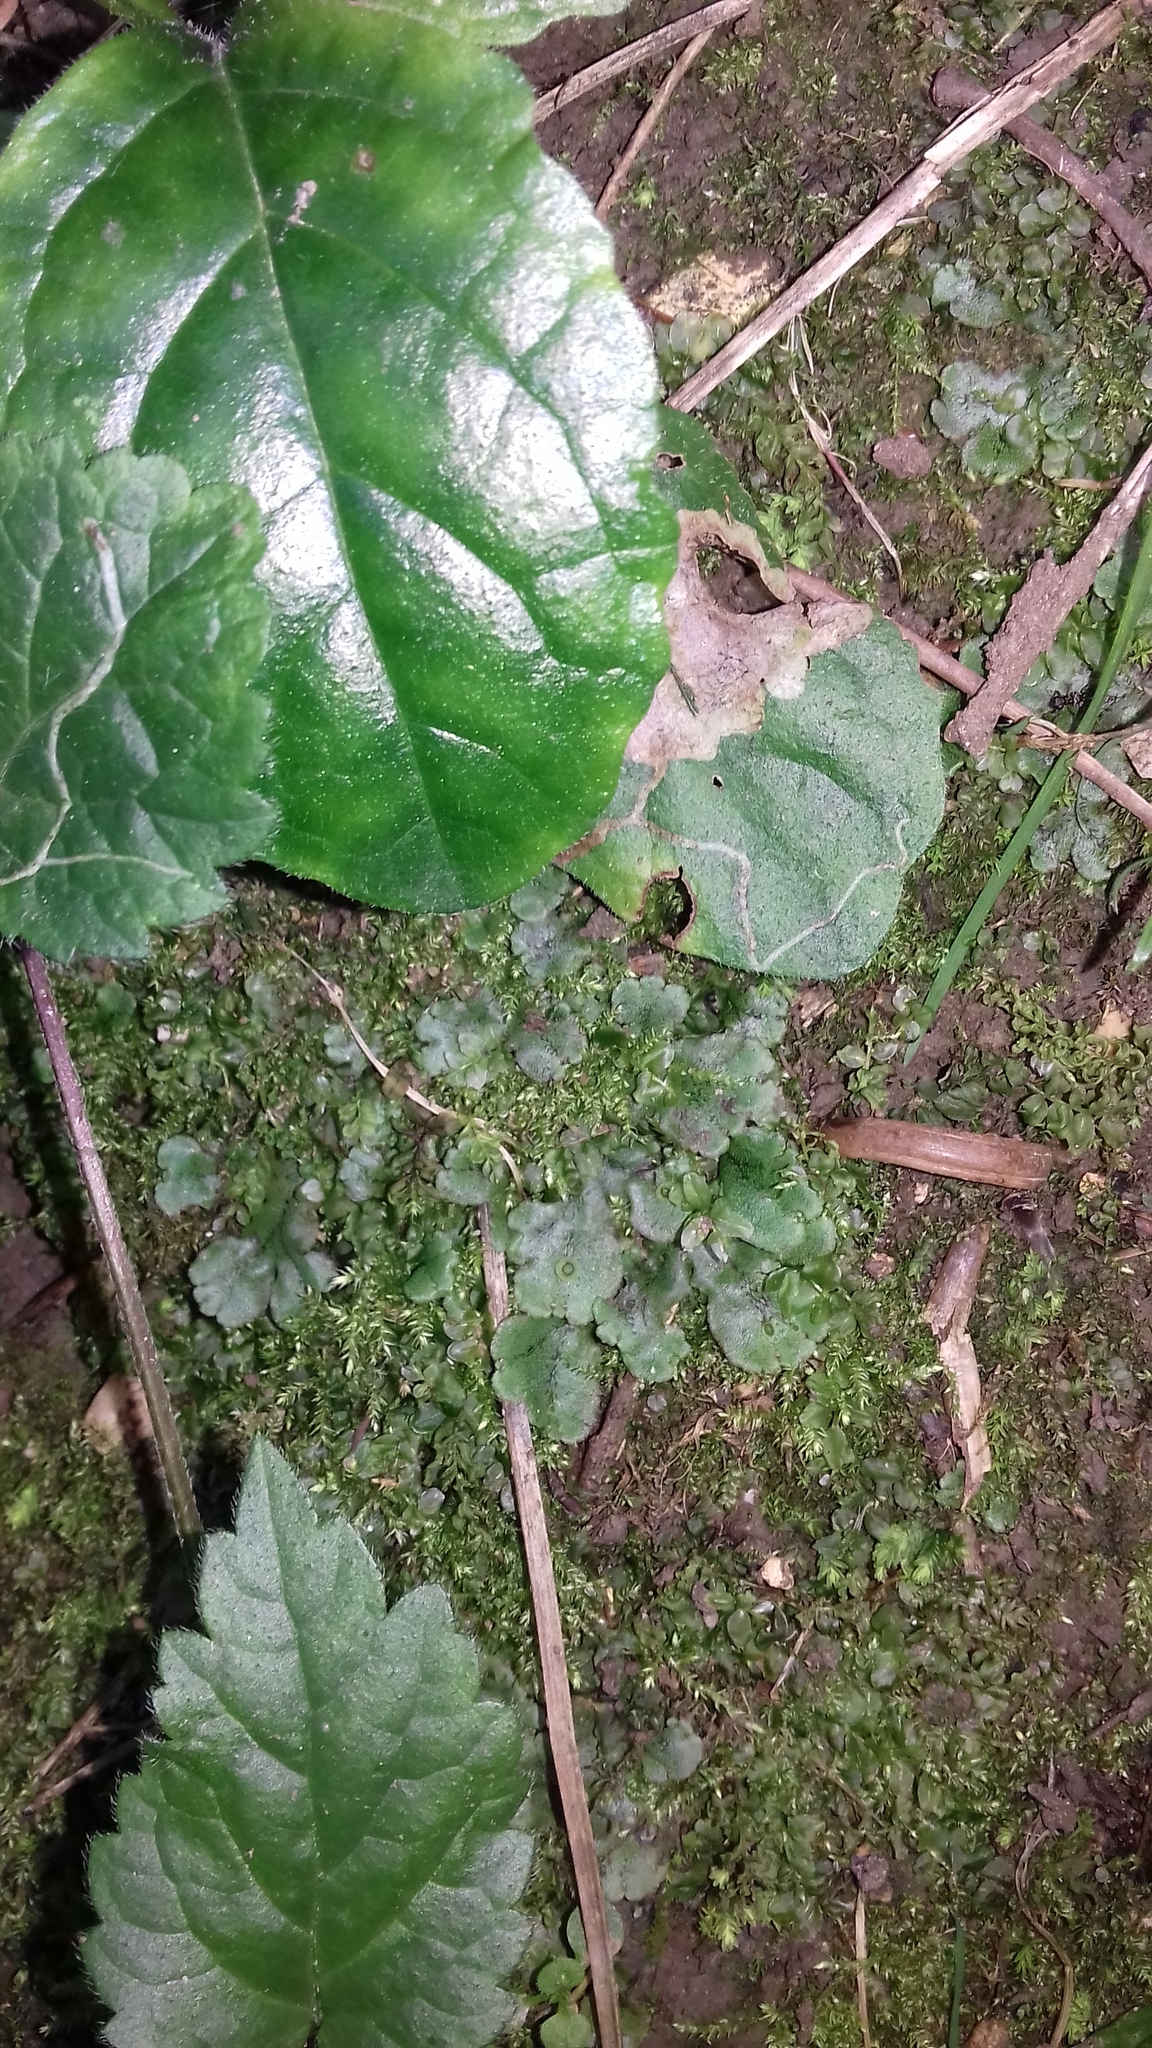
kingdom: Plantae
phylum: Marchantiophyta
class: Marchantiopsida
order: Marchantiales
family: Marchantiaceae
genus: Marchantia
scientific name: Marchantia polymorpha
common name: Common liverwort
